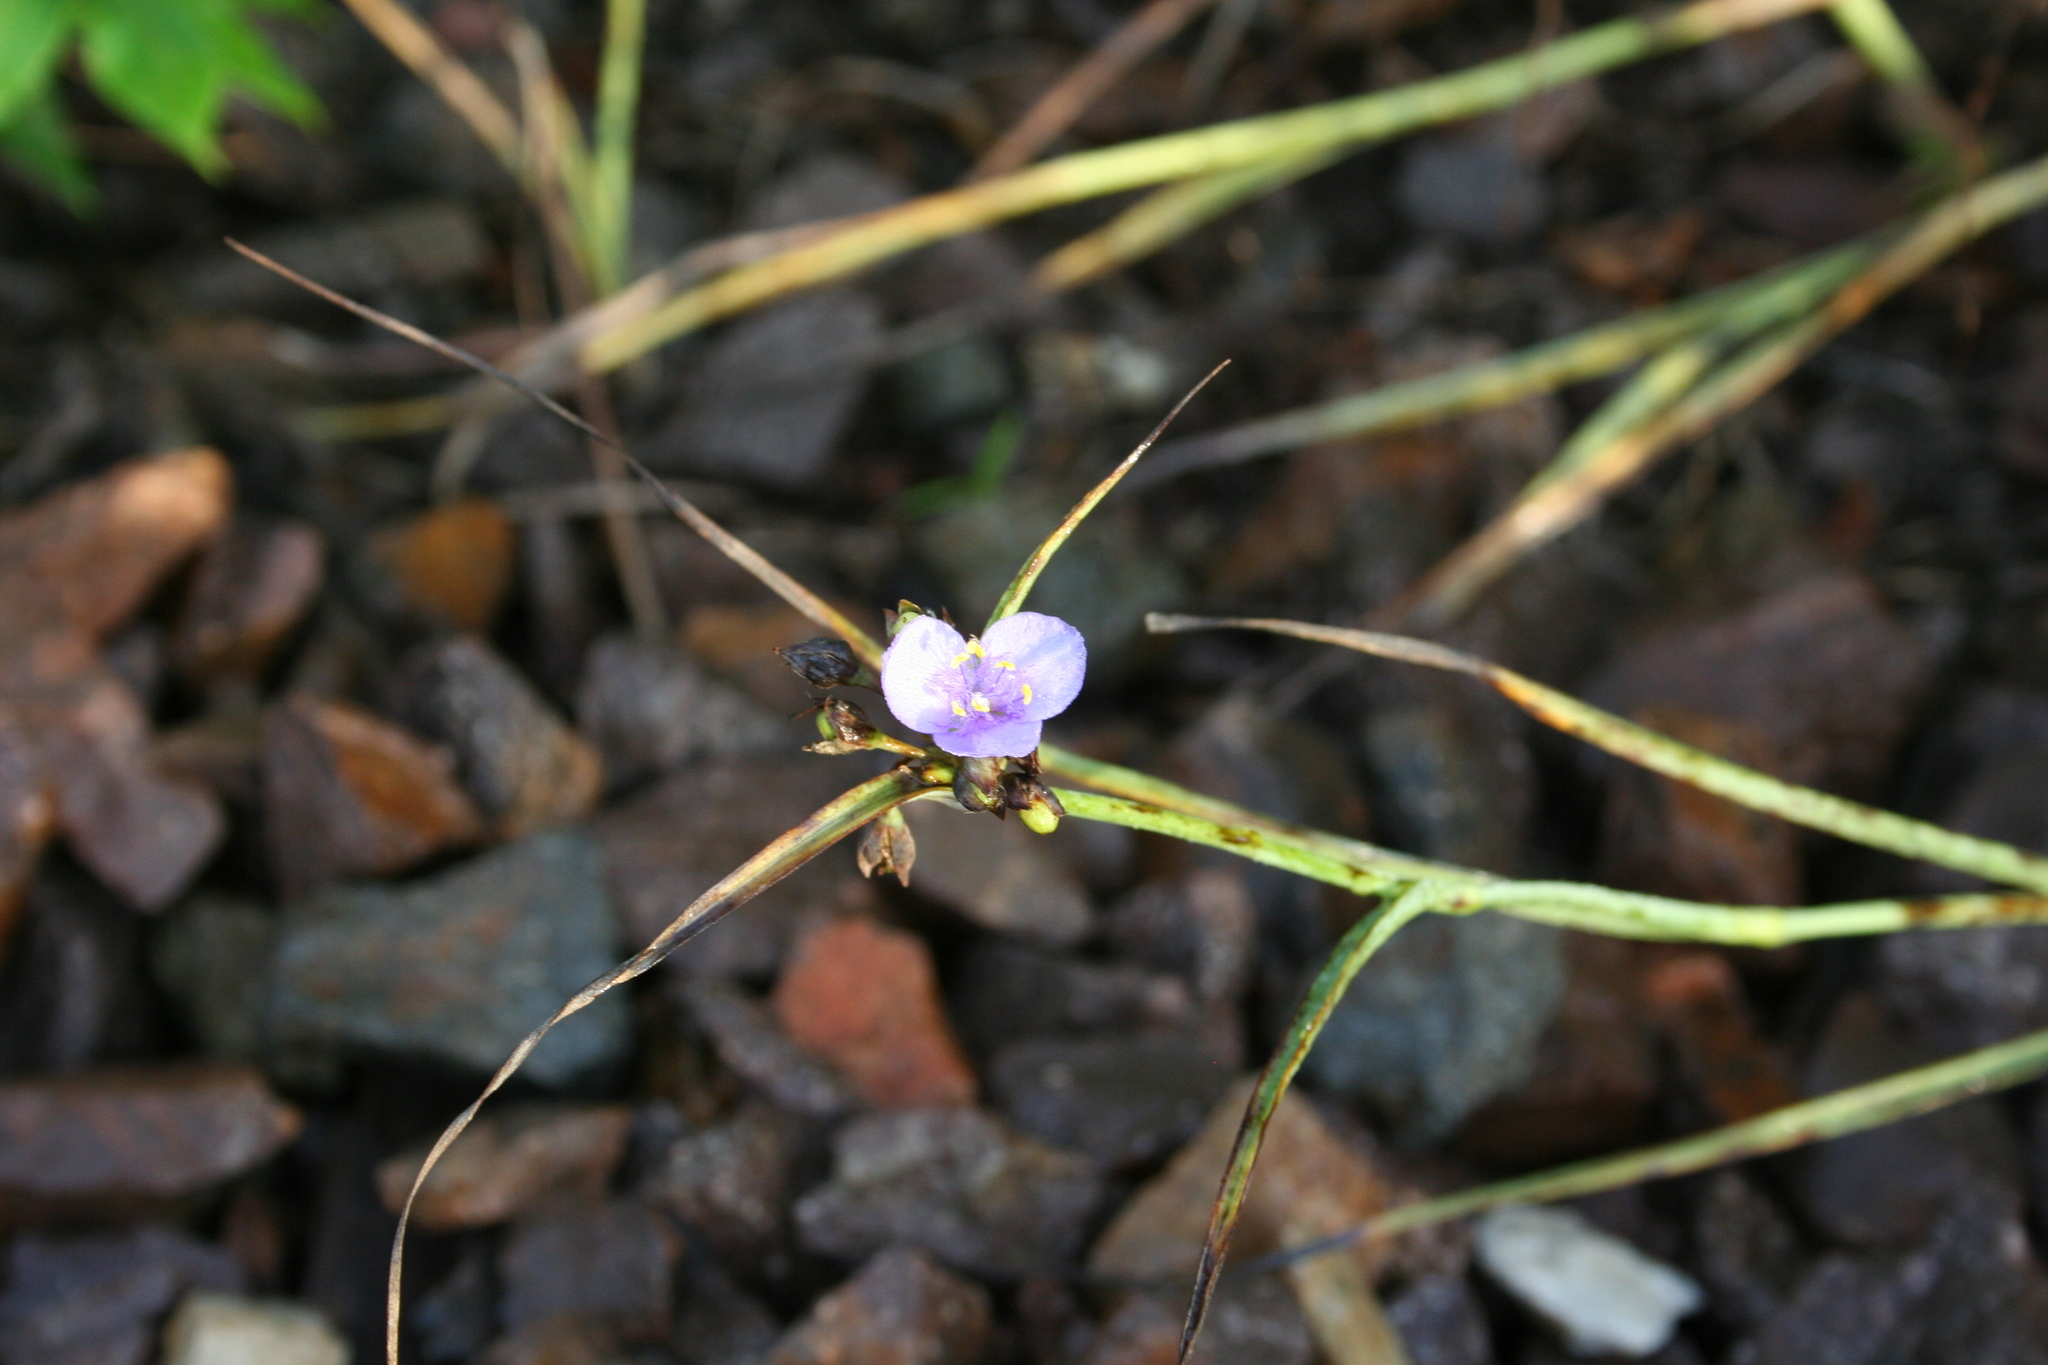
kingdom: Plantae
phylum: Tracheophyta
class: Liliopsida
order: Commelinales
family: Commelinaceae
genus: Tradescantia
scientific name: Tradescantia ohiensis
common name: Ohio spiderwort
